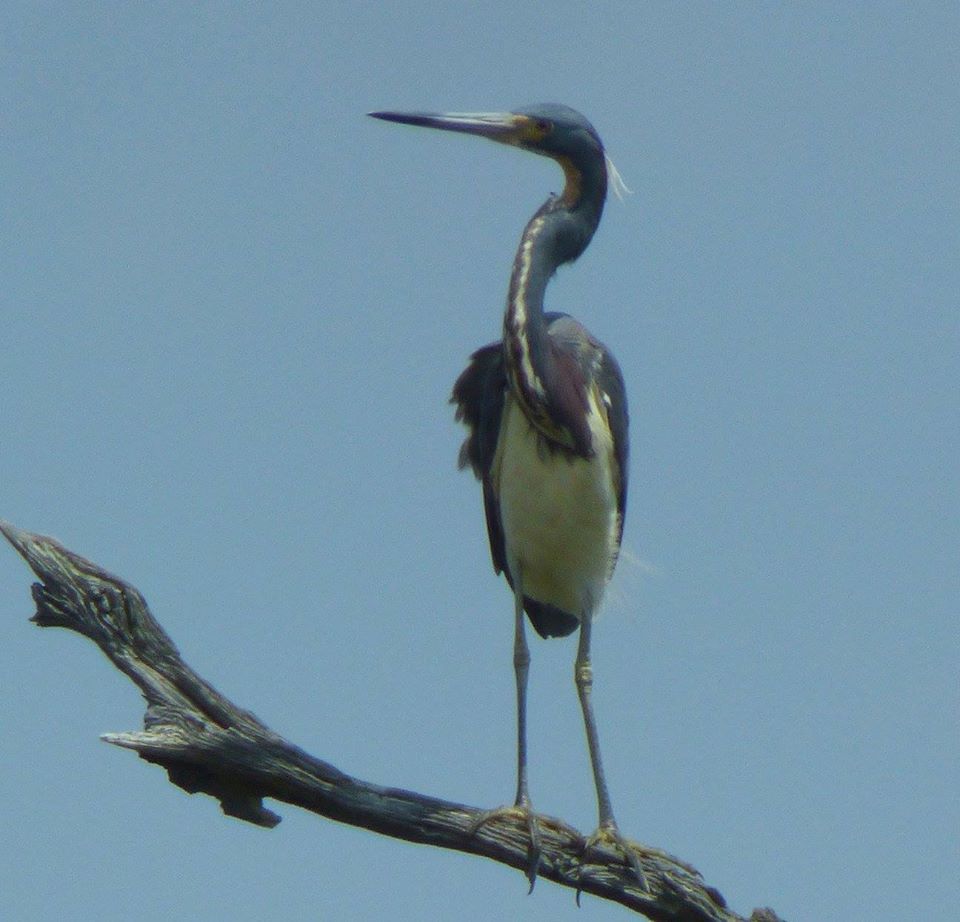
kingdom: Animalia
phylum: Chordata
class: Aves
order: Pelecaniformes
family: Ardeidae
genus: Egretta
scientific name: Egretta tricolor
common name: Tricolored heron
